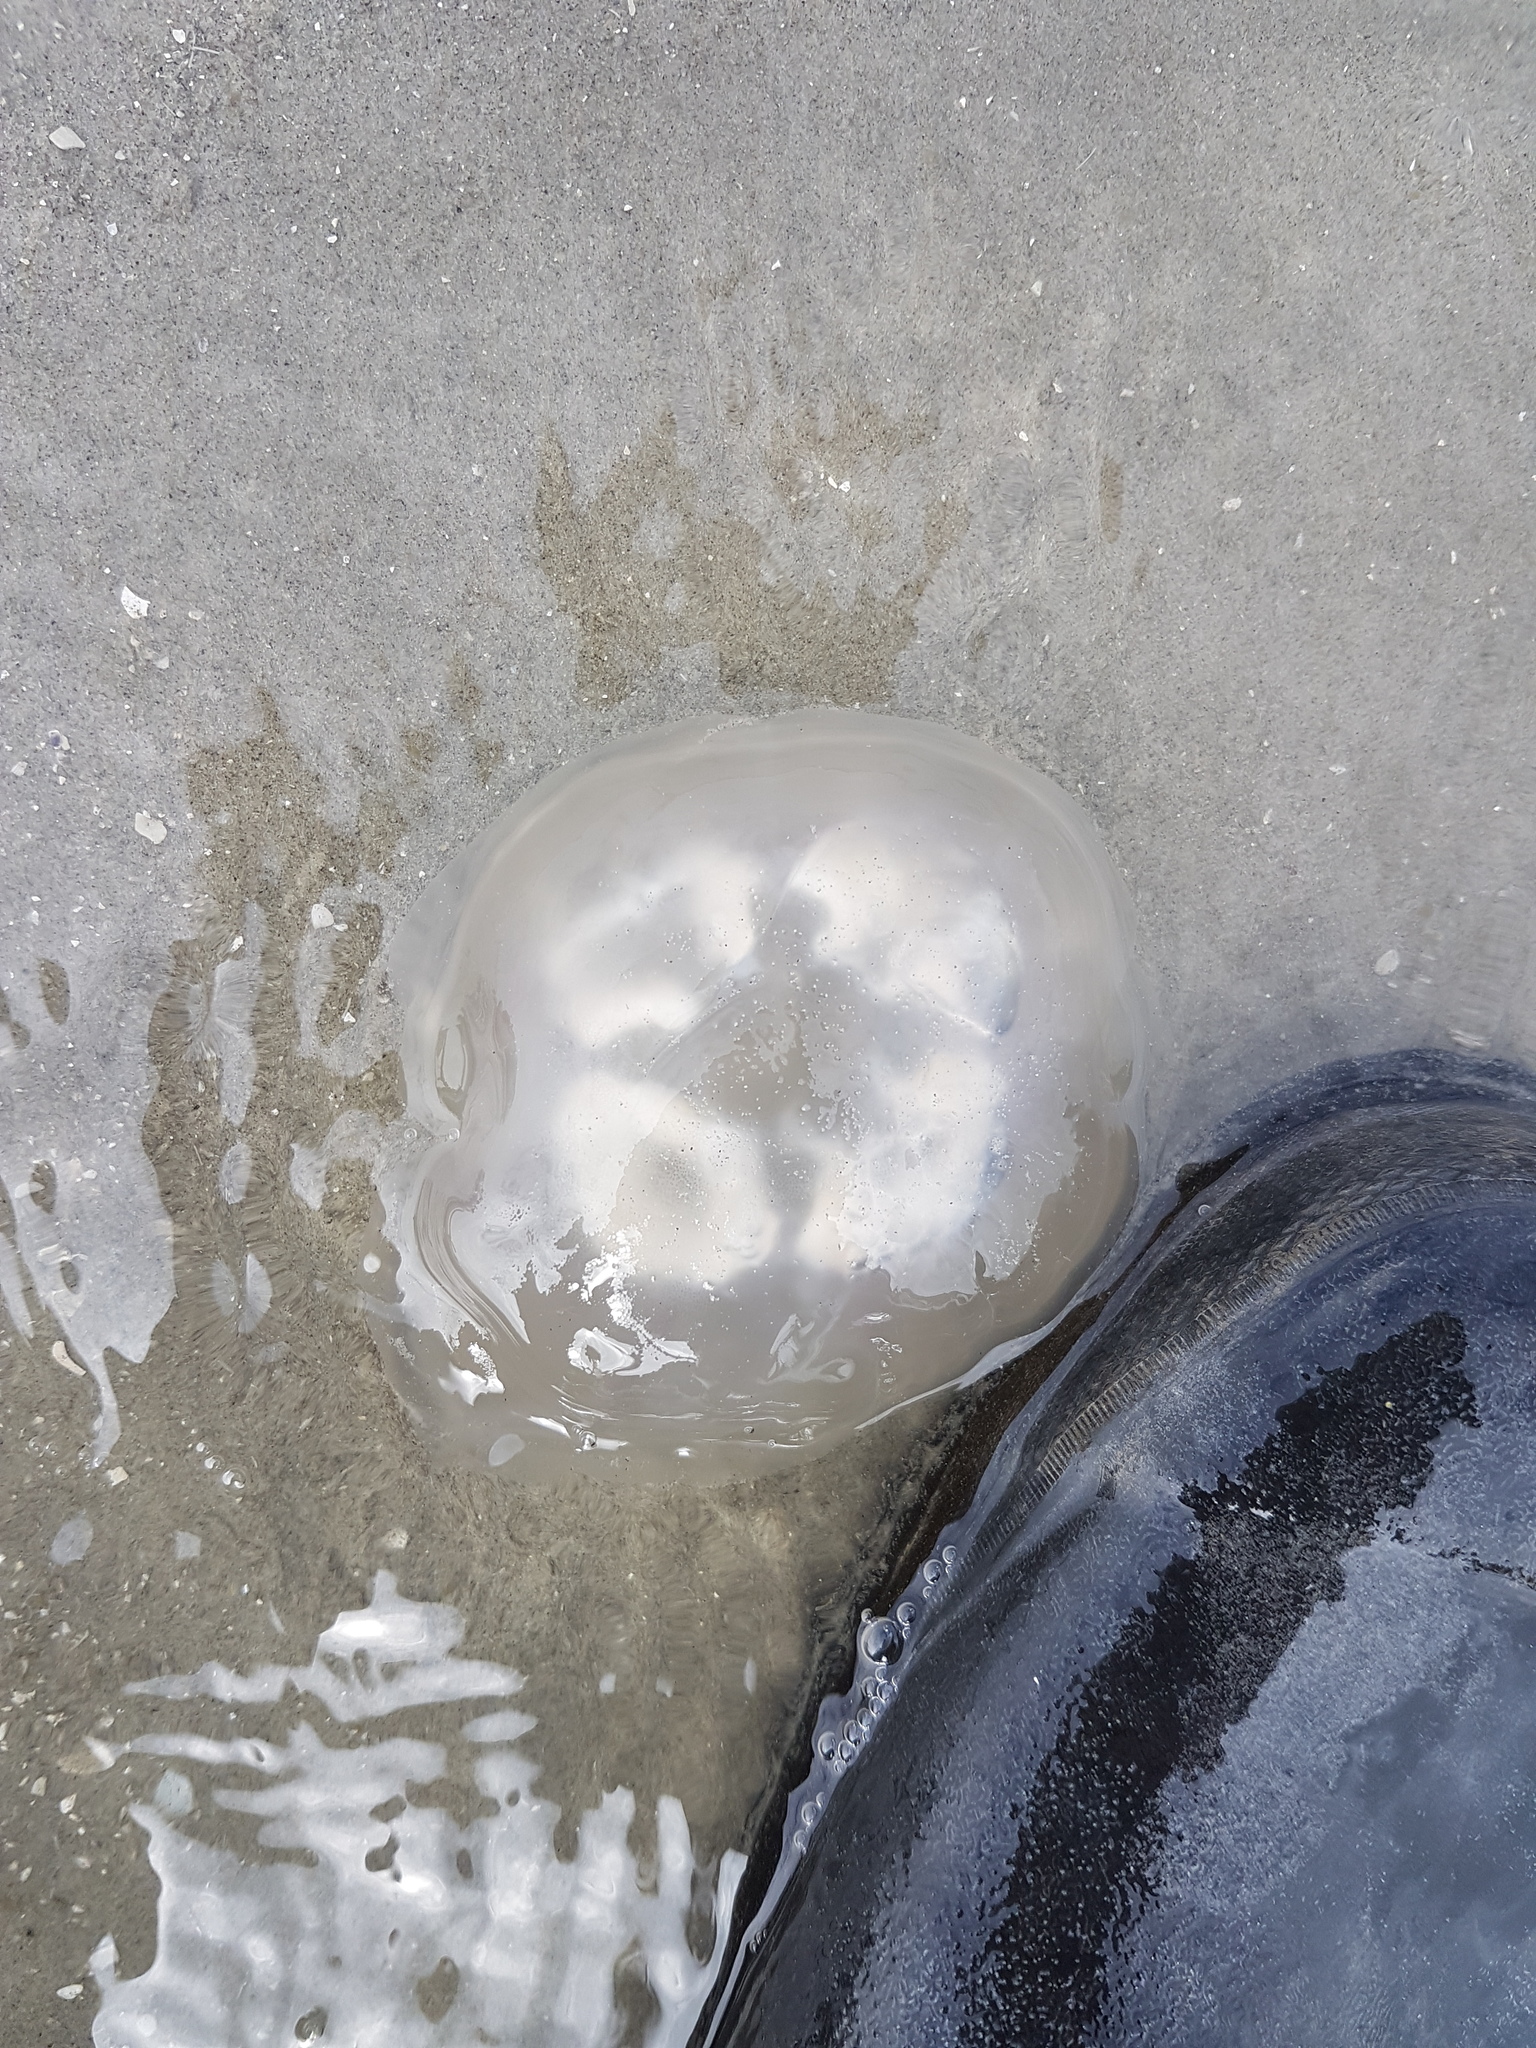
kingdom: Animalia
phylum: Cnidaria
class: Scyphozoa
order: Semaeostomeae
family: Ulmaridae
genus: Aurelia
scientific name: Aurelia aurita
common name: Moon jellyfish
